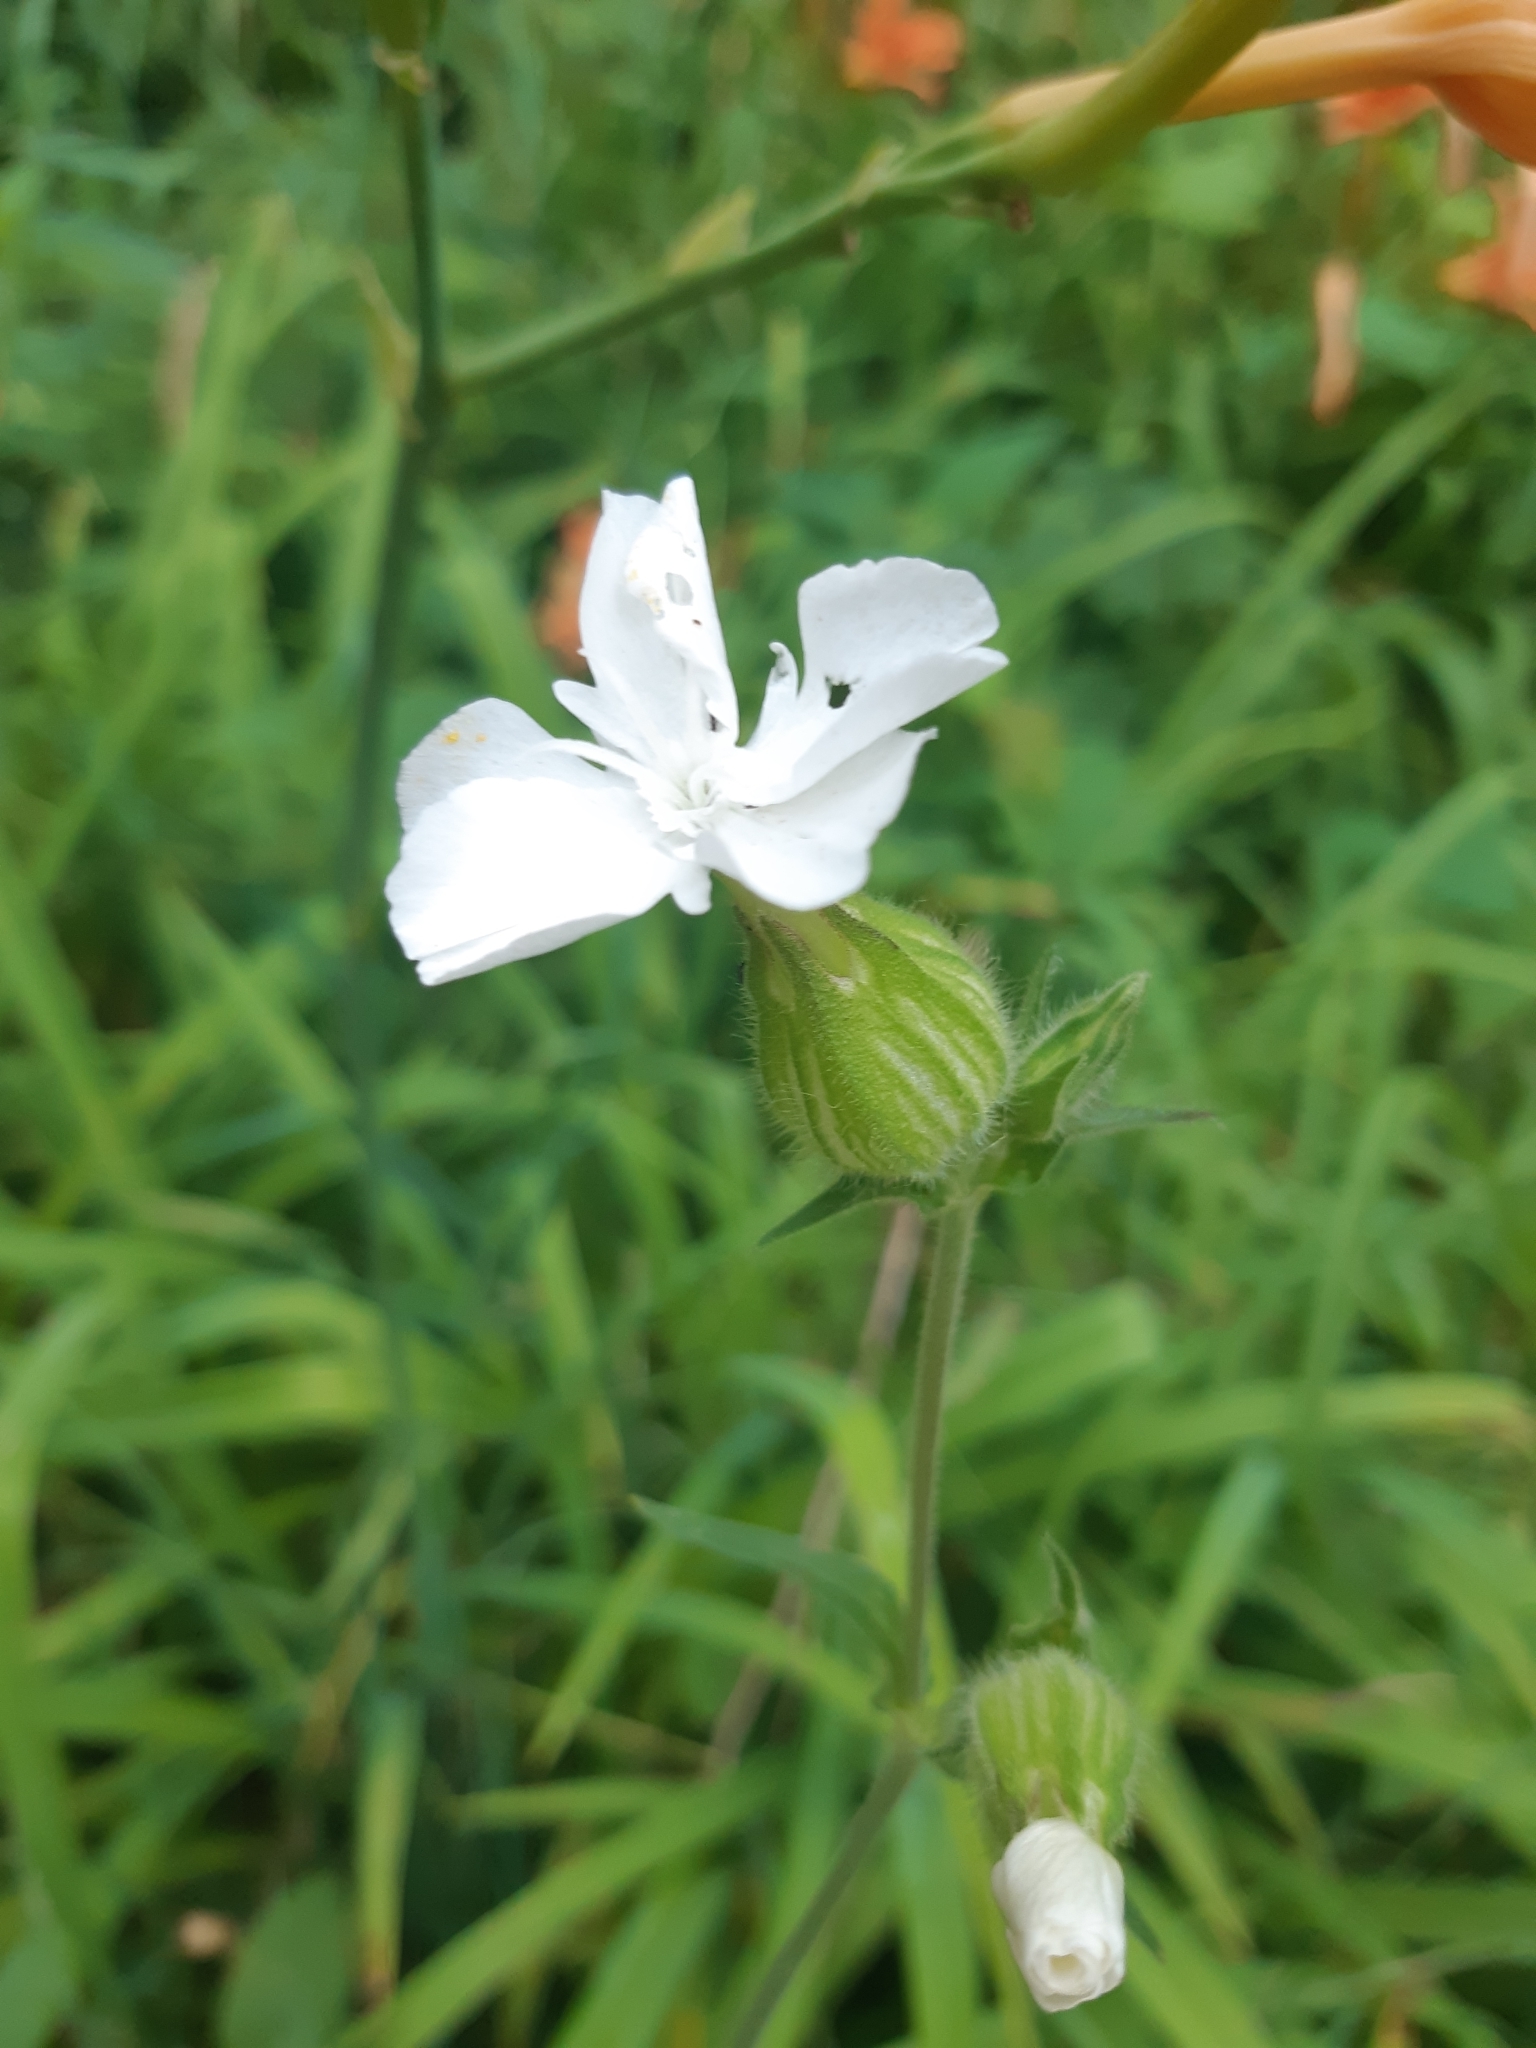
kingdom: Plantae
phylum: Tracheophyta
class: Magnoliopsida
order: Caryophyllales
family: Caryophyllaceae
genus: Silene
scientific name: Silene latifolia
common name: White campion
